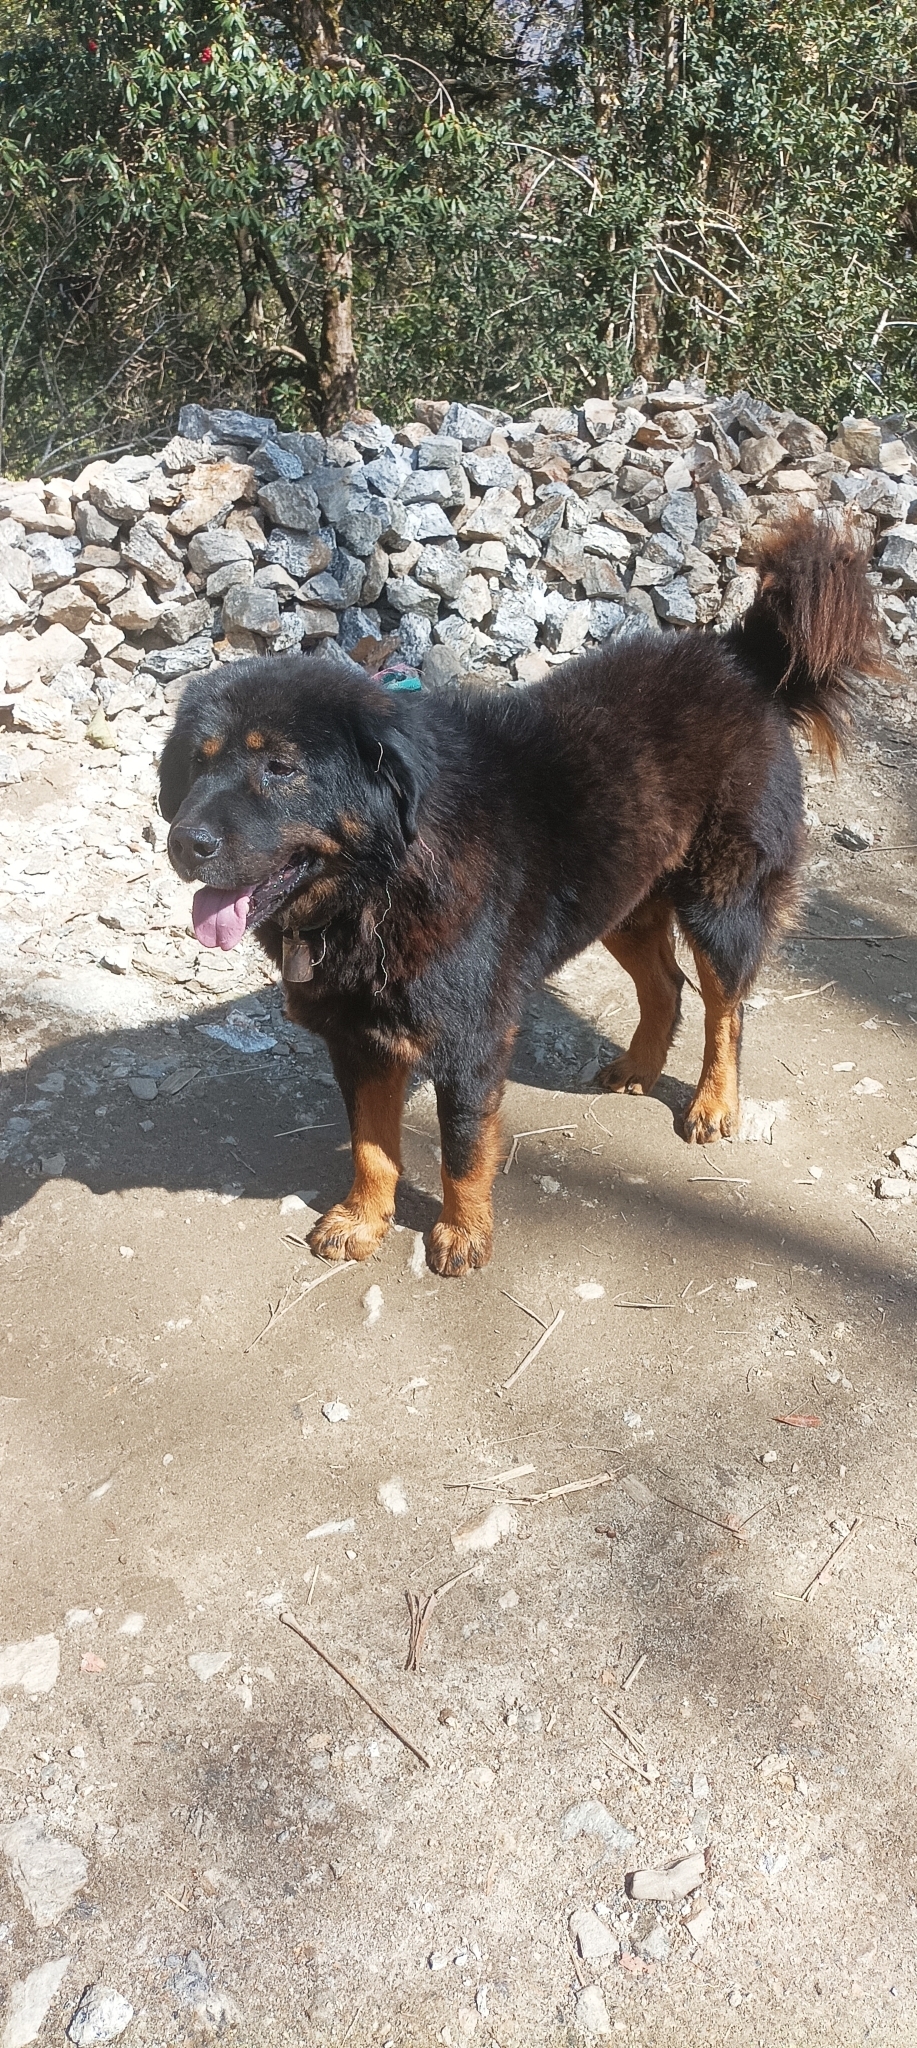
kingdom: Animalia
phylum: Chordata
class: Mammalia
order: Carnivora
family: Canidae
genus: Canis
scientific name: Canis lupus
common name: Gray wolf
